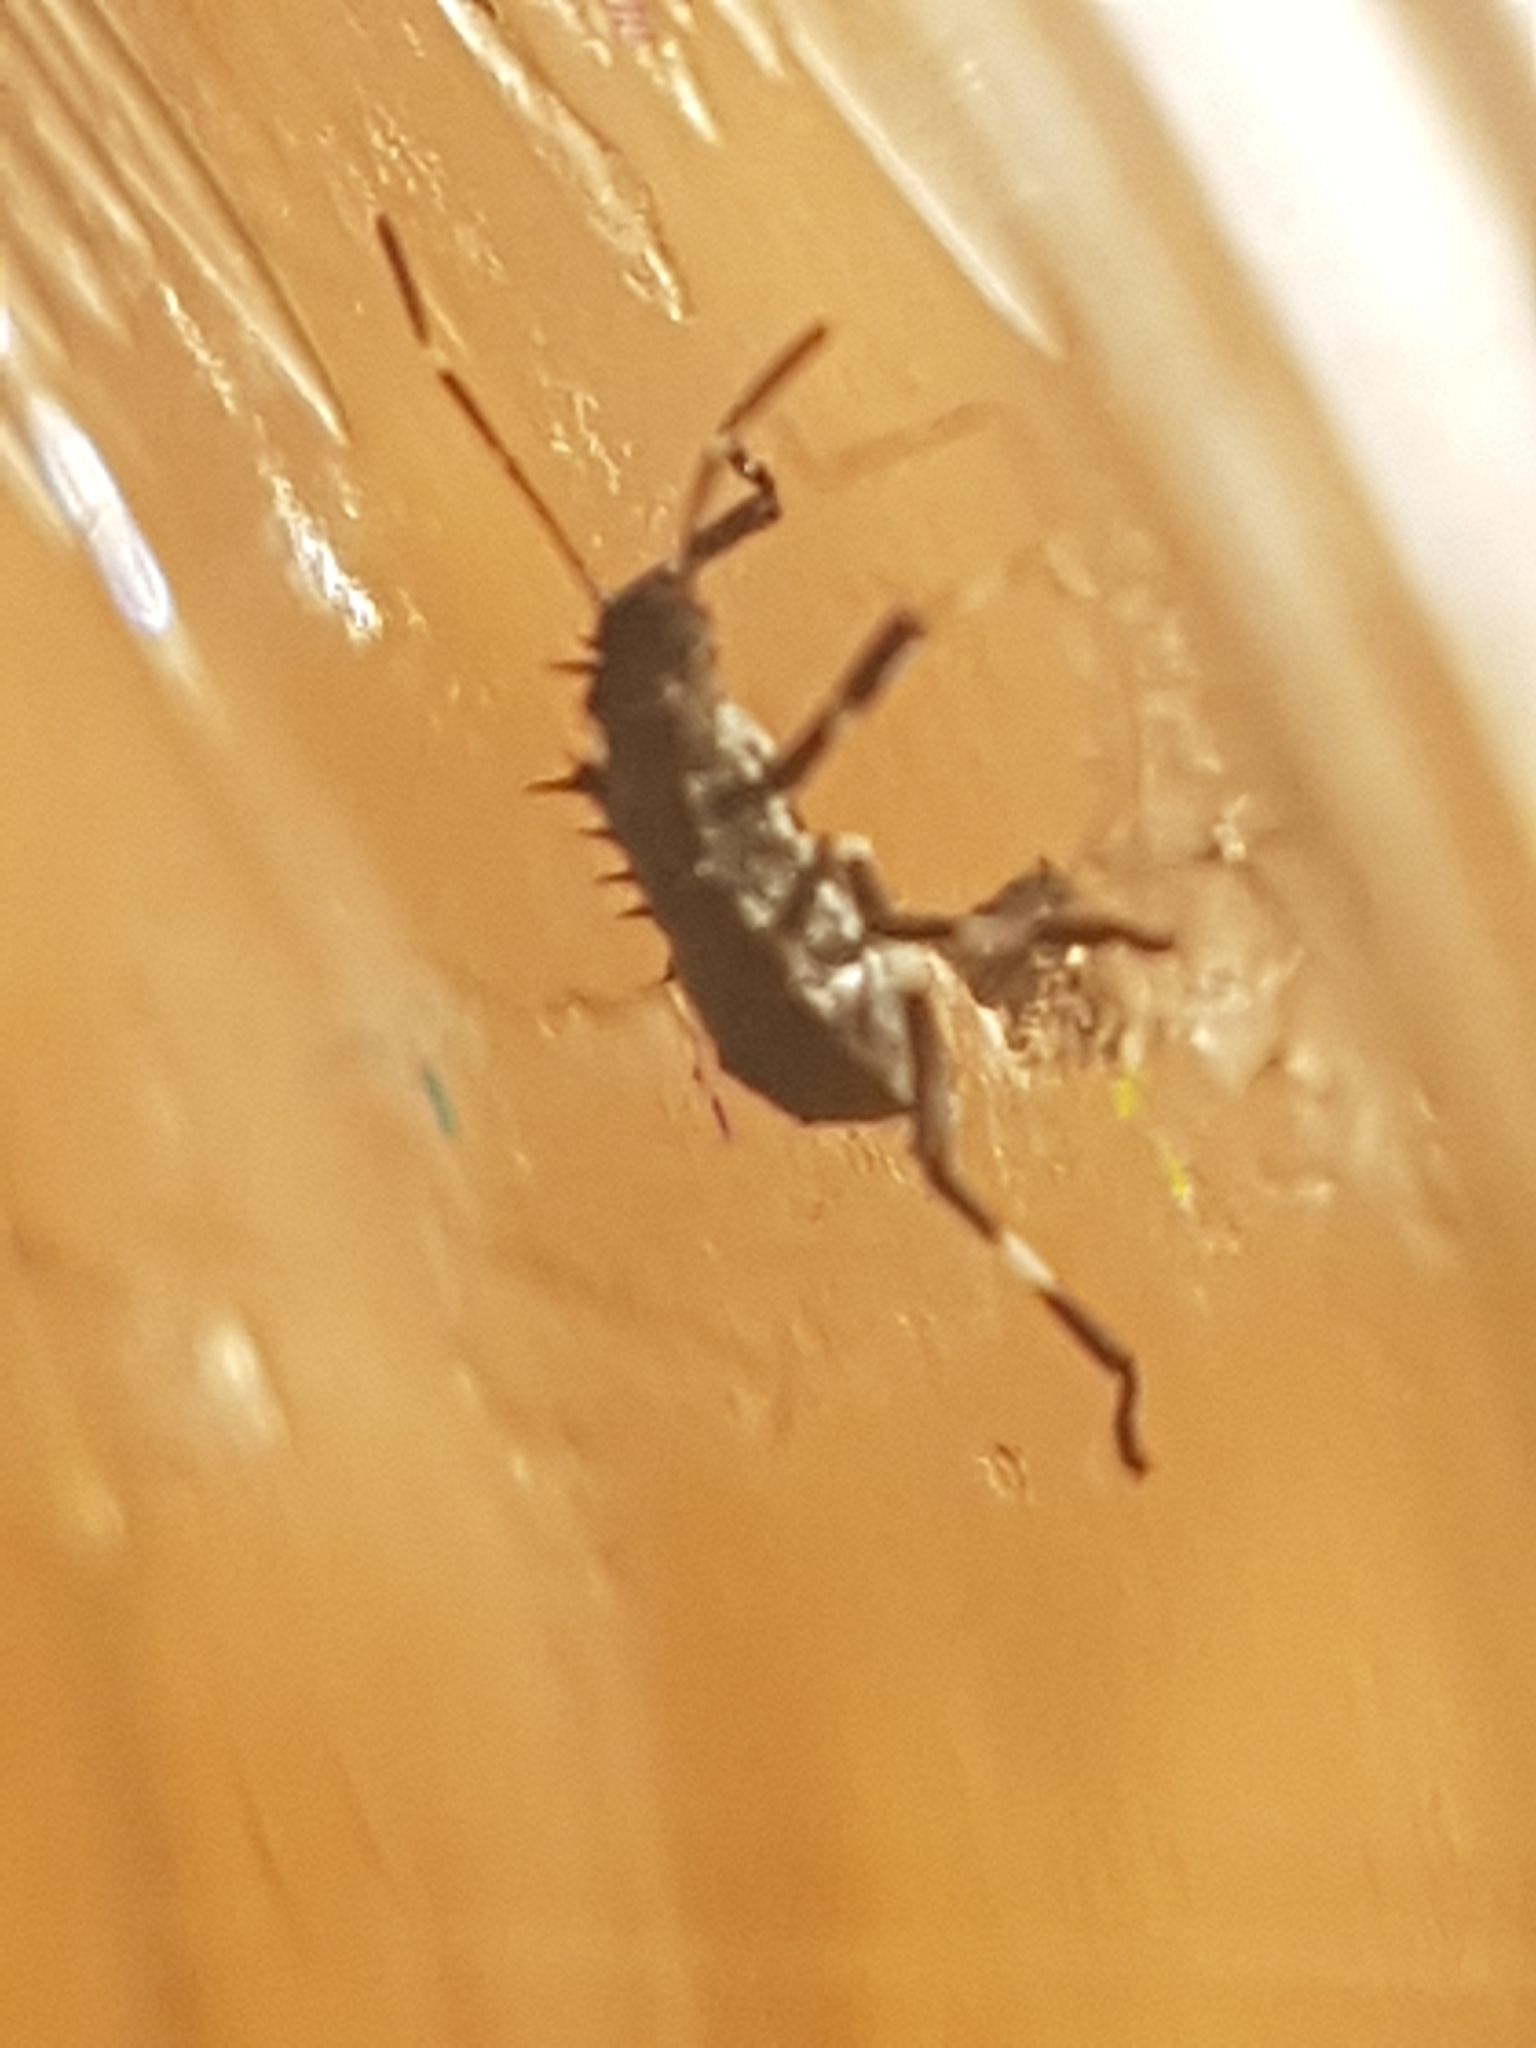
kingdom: Animalia
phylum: Arthropoda
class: Insecta
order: Hemiptera
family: Pentatomidae
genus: Halyomorpha
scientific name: Halyomorpha halys
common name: Brown marmorated stink bug
